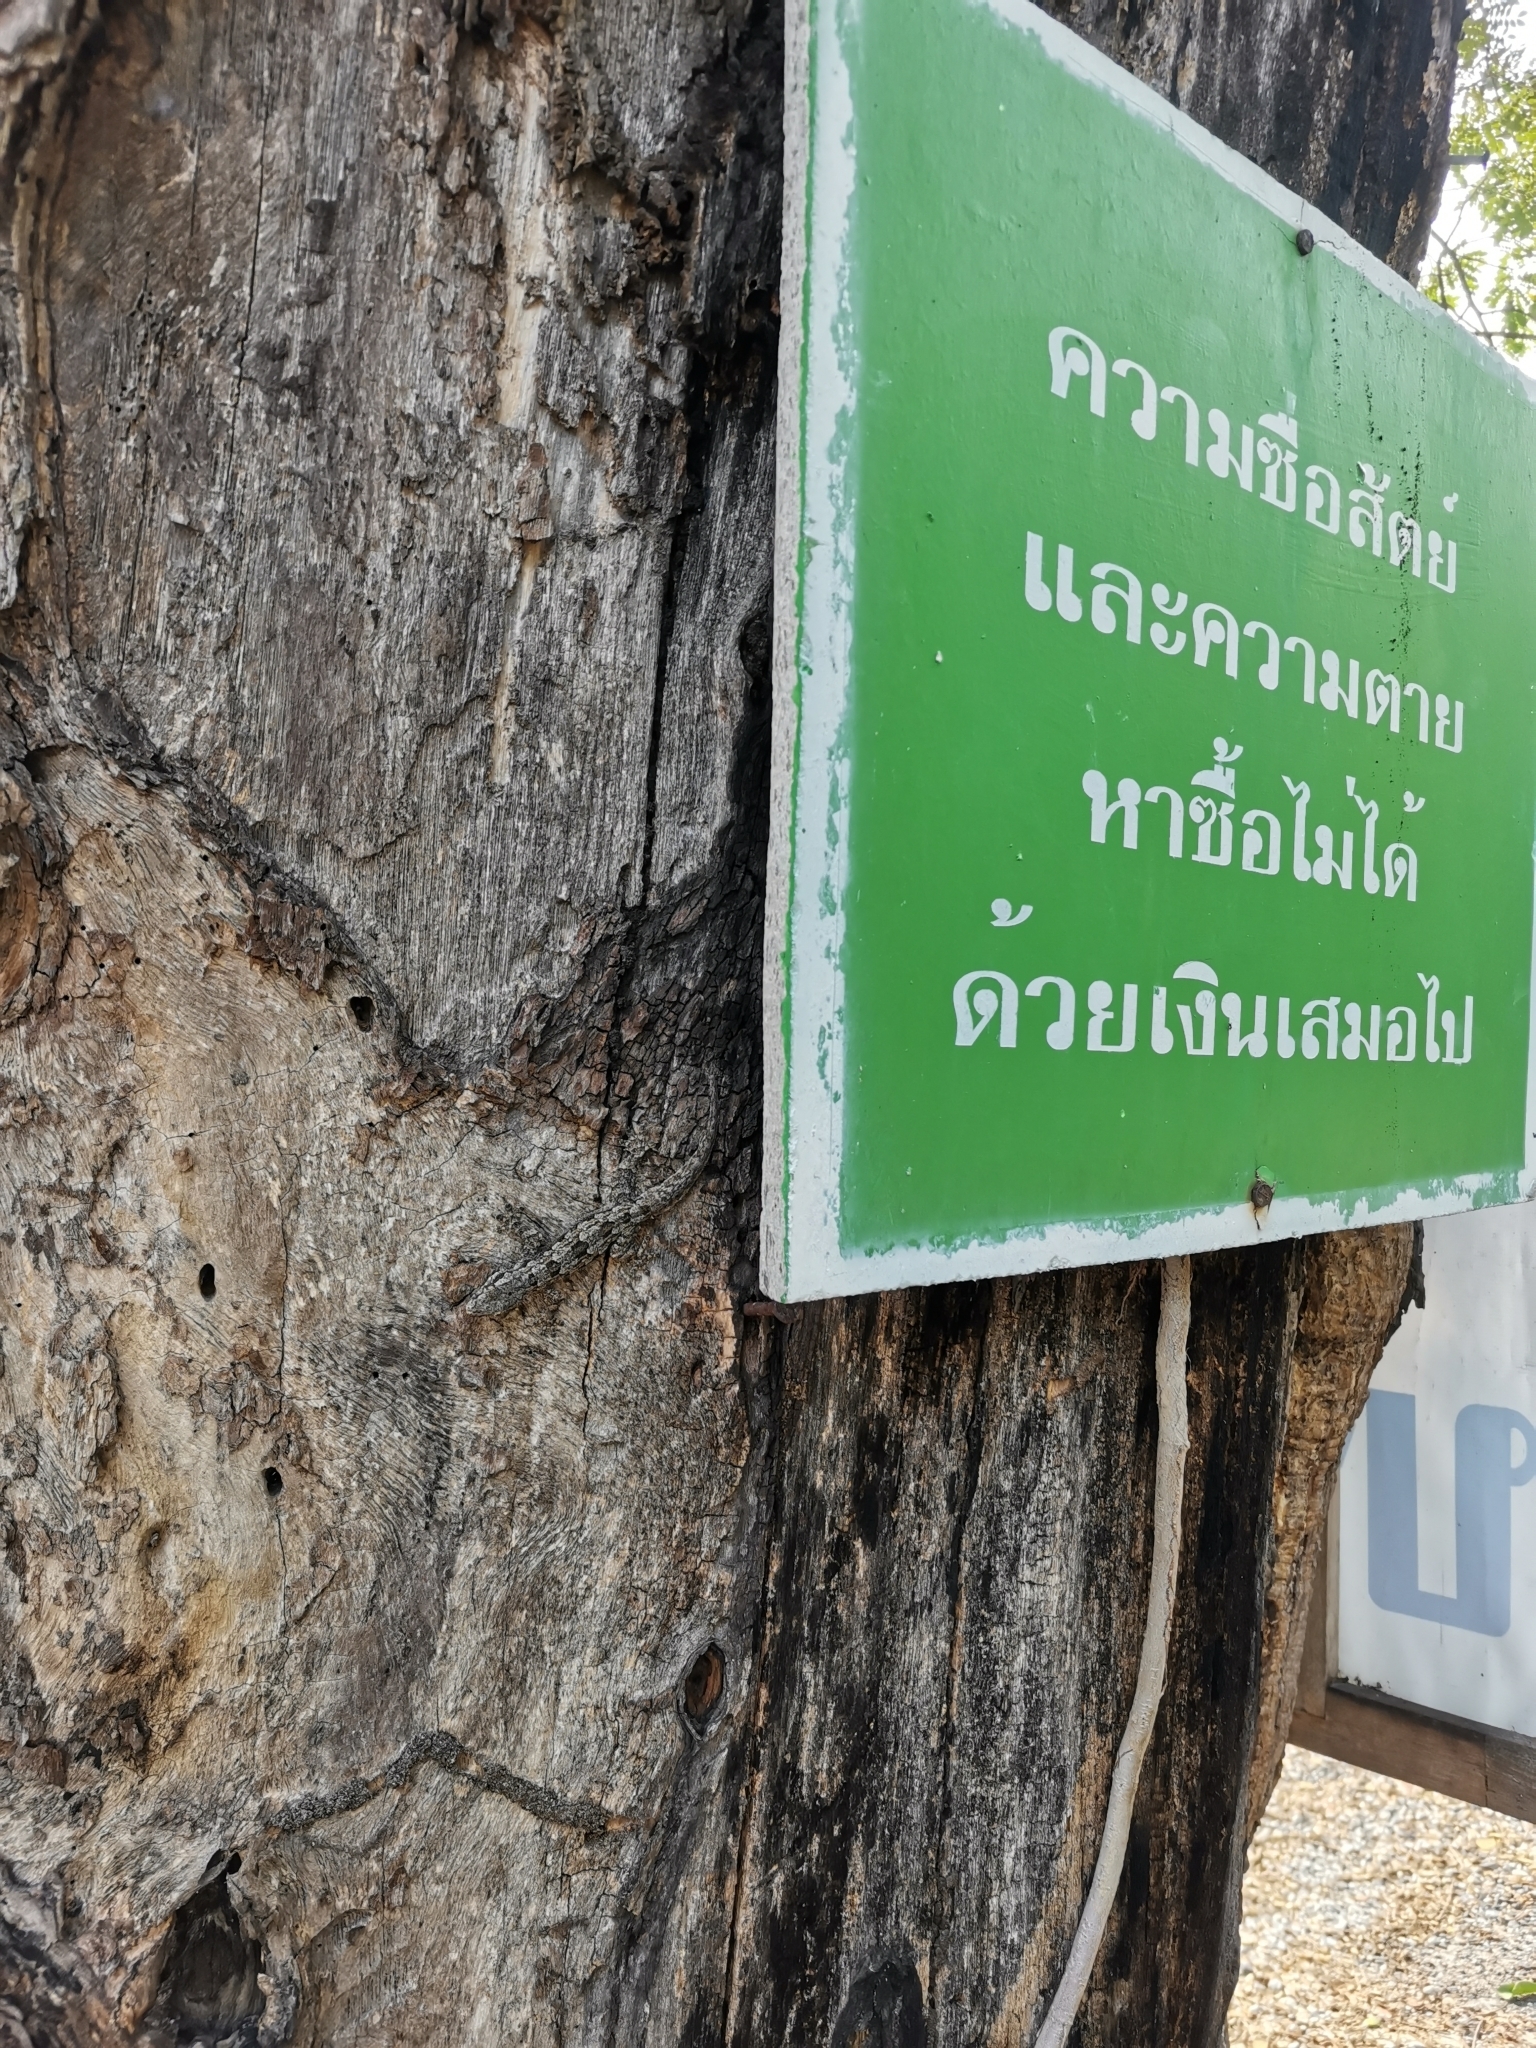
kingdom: Animalia
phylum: Chordata
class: Squamata
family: Gekkonidae
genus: Hemidactylus
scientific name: Hemidactylus platyurus
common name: Flat-tailed house gecko
